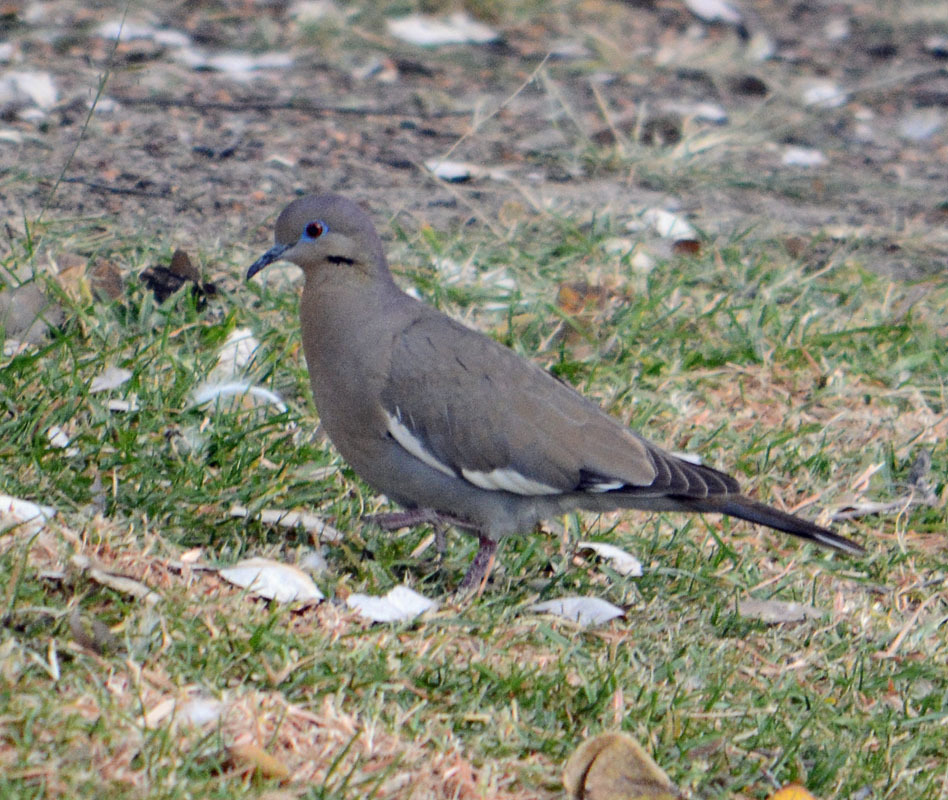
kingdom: Animalia
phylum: Chordata
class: Aves
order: Columbiformes
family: Columbidae
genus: Zenaida
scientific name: Zenaida asiatica
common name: White-winged dove
